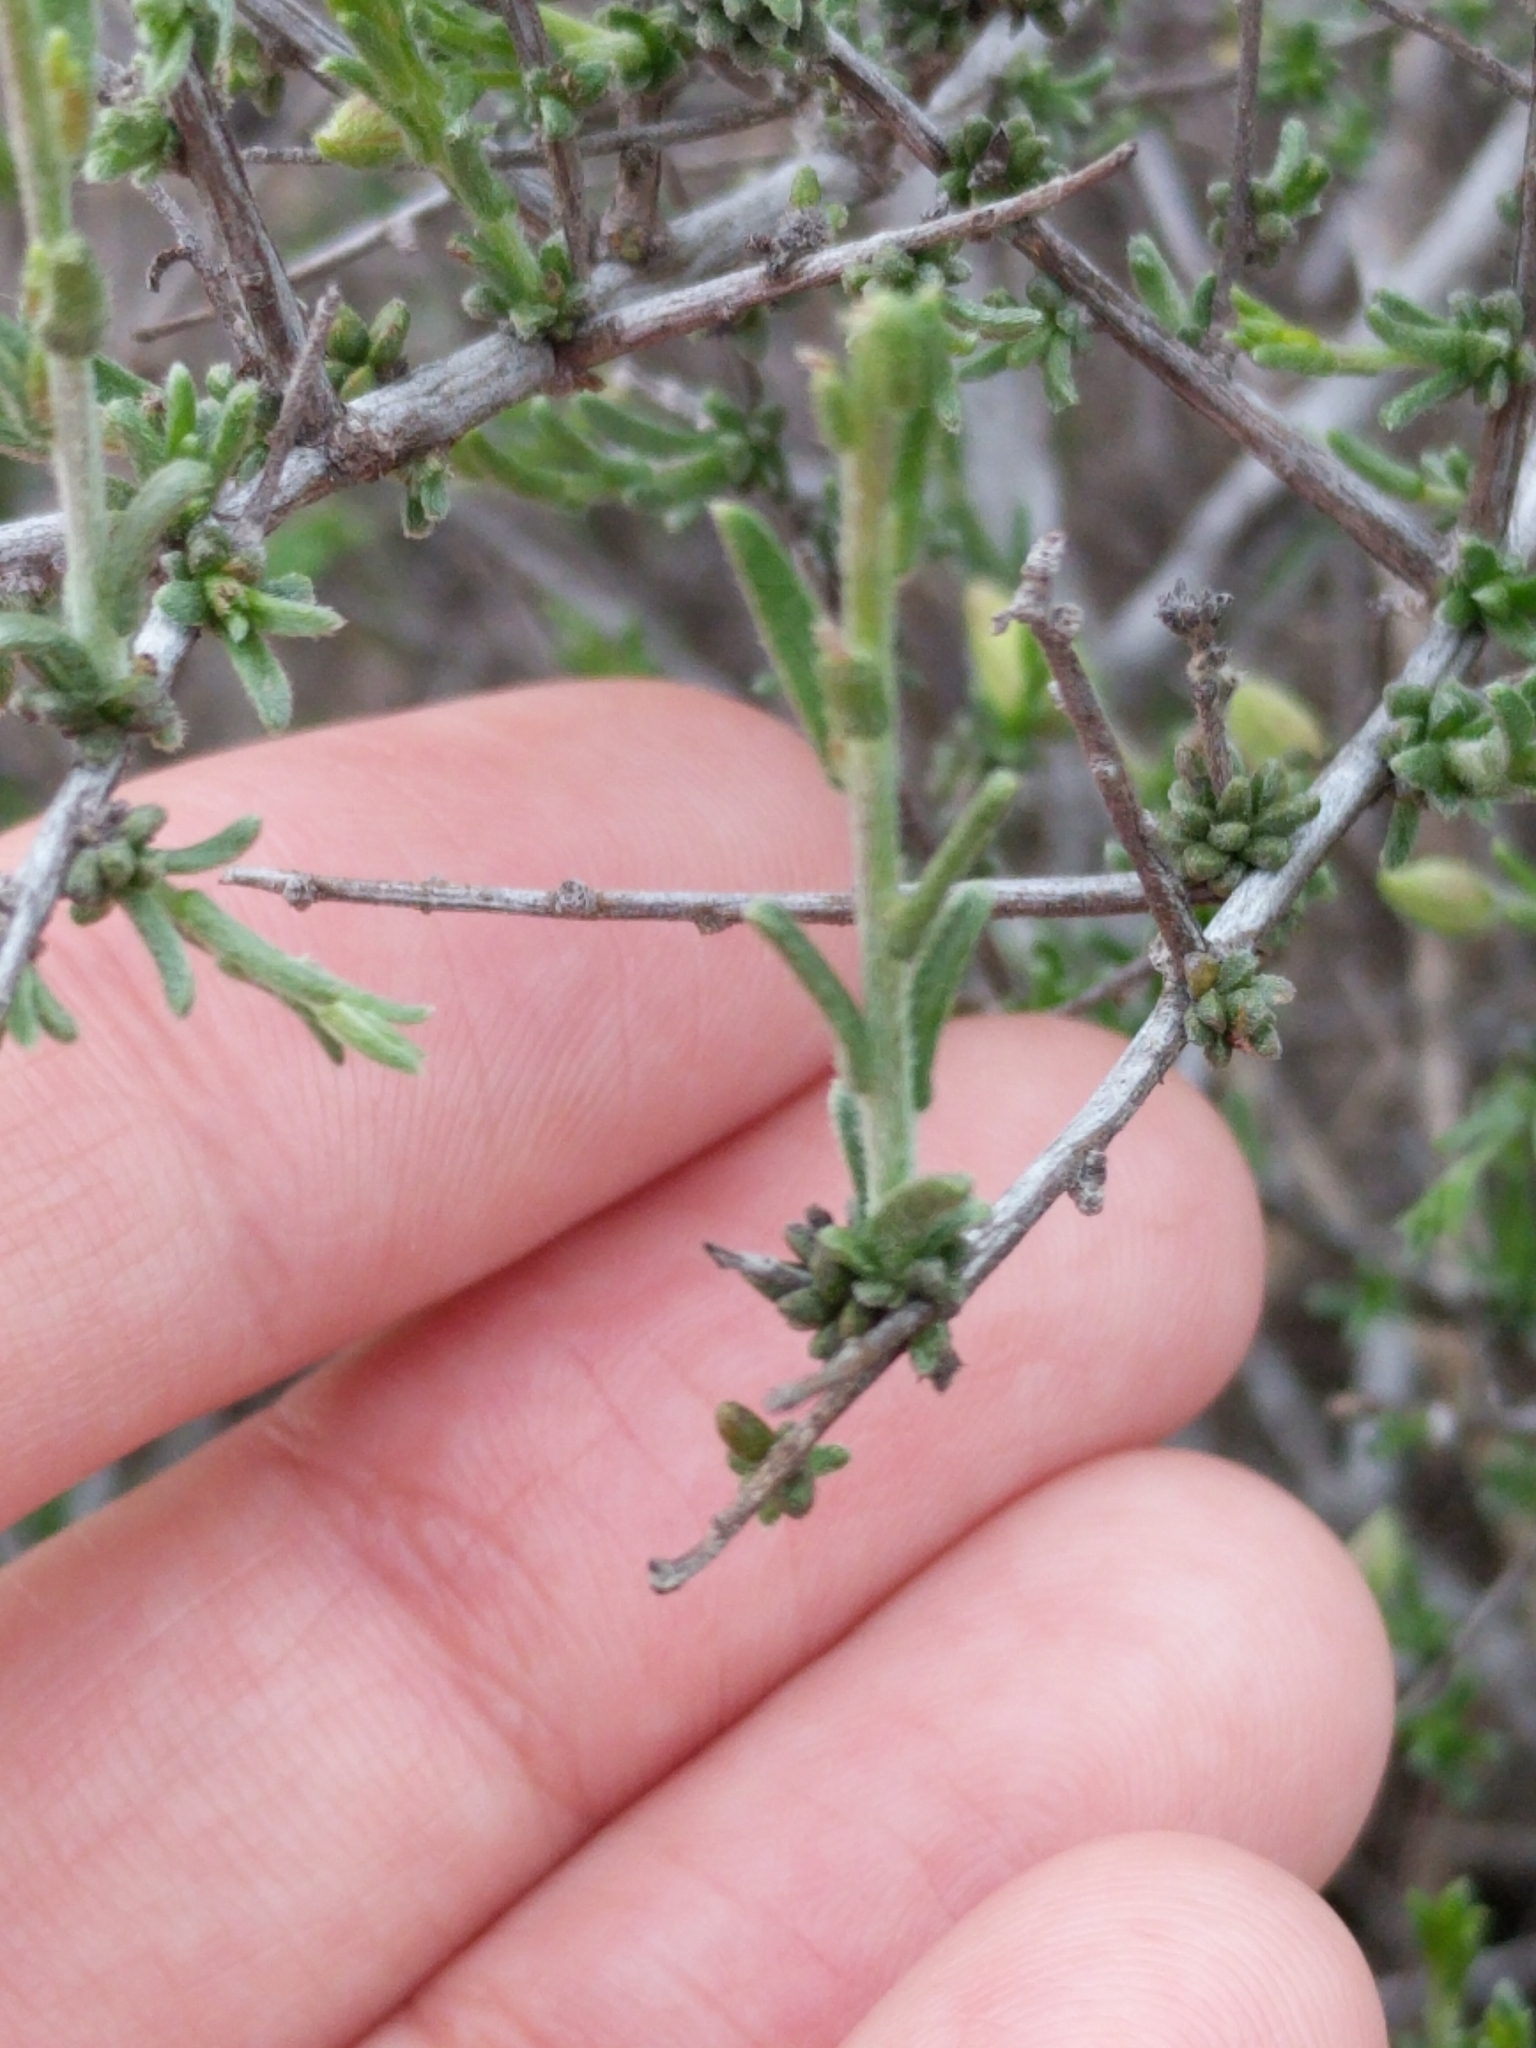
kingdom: Plantae
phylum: Tracheophyta
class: Magnoliopsida
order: Zygophyllales
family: Krameriaceae
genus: Krameria
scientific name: Krameria ramosissima
